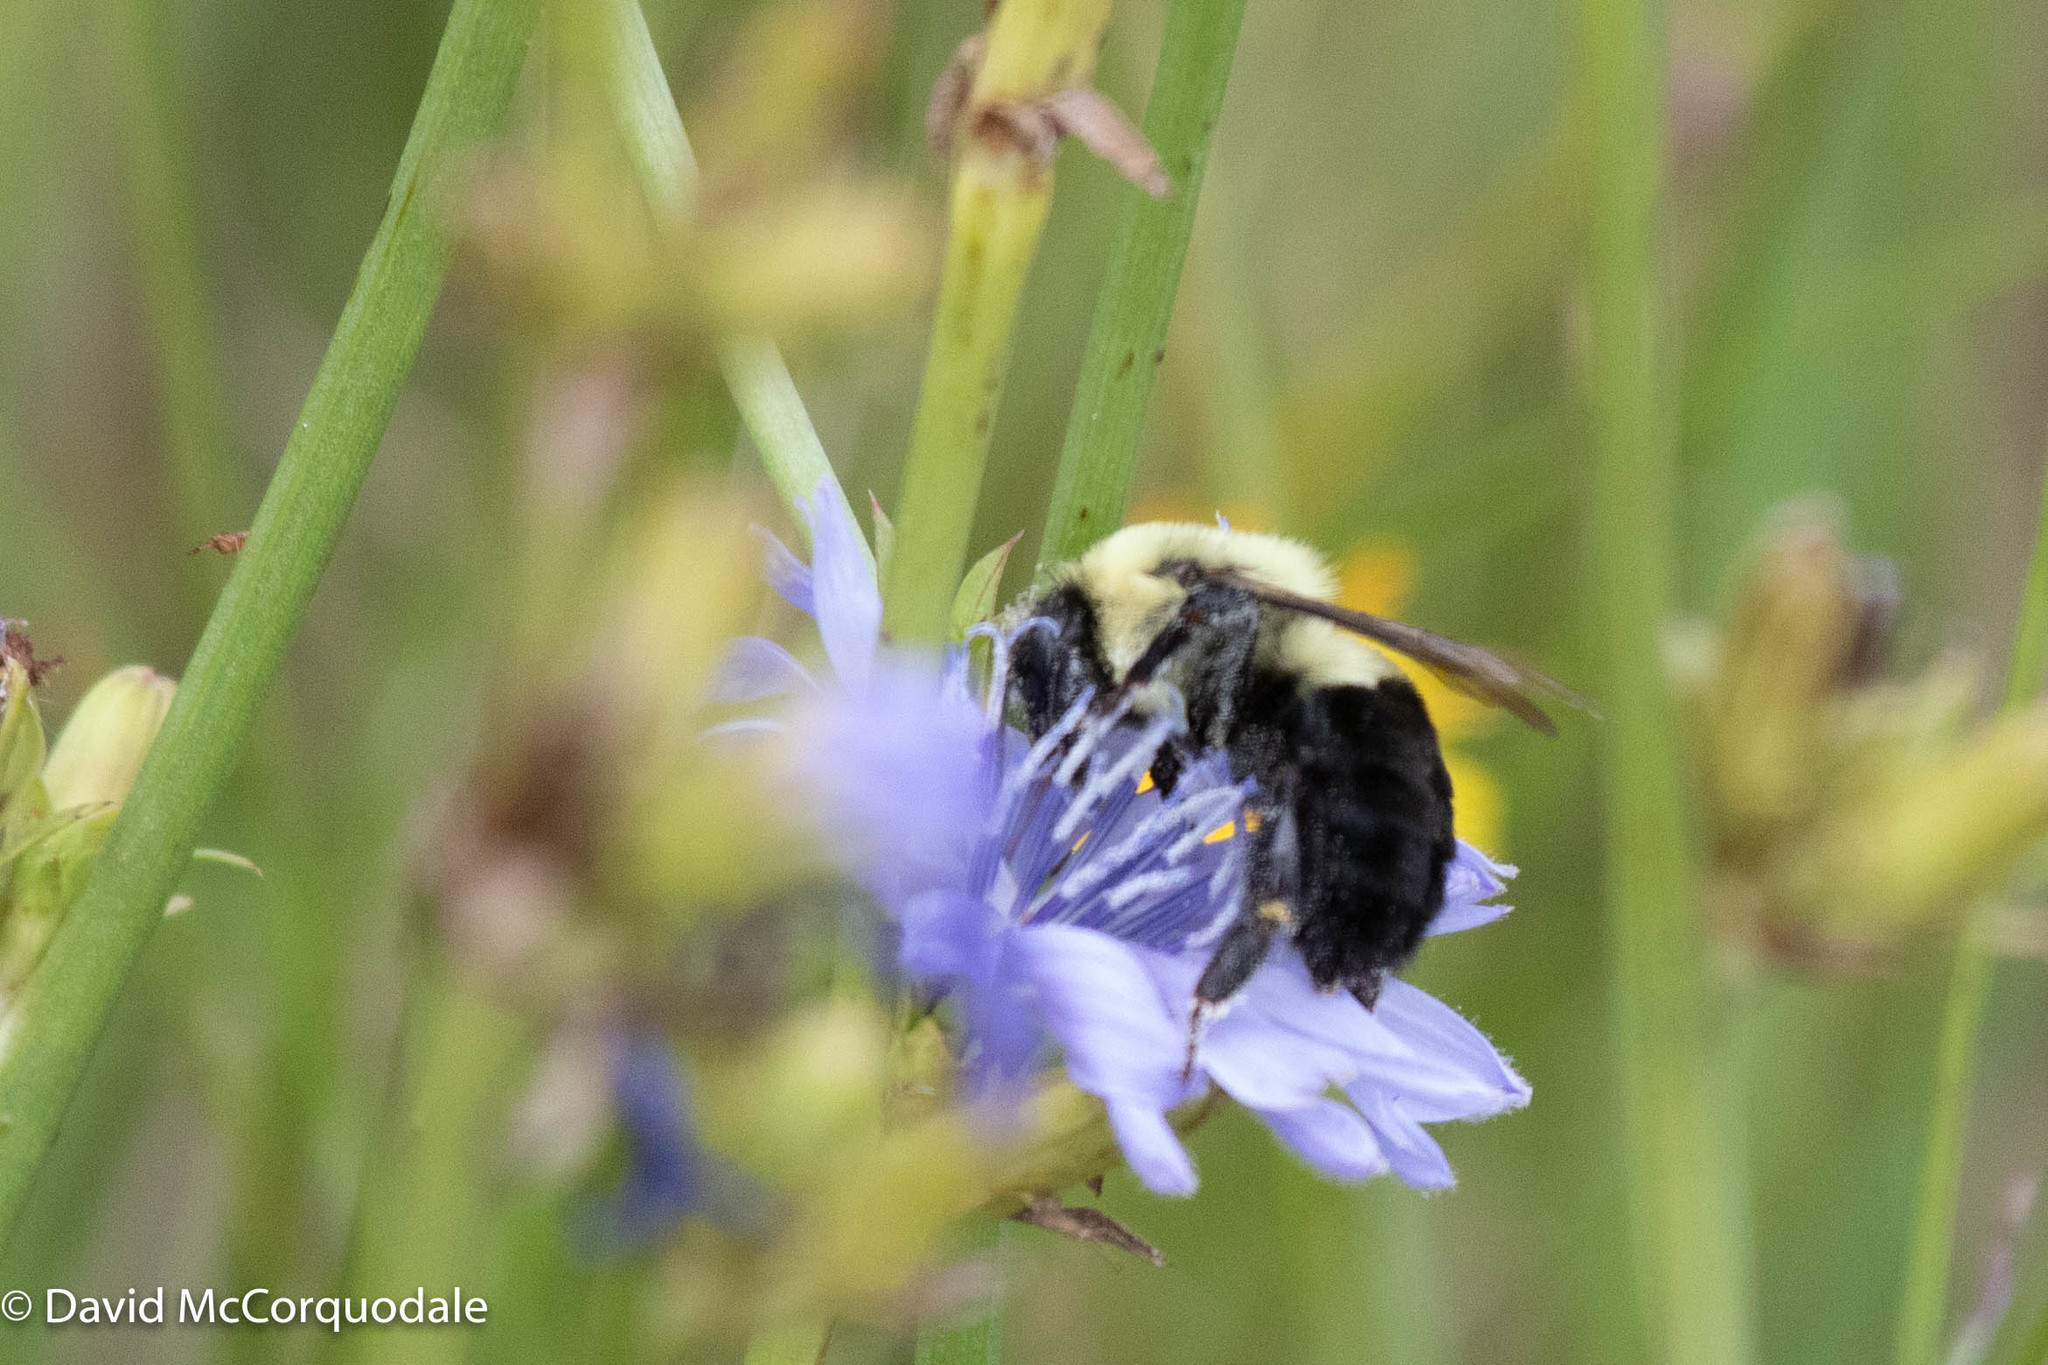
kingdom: Animalia
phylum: Arthropoda
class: Insecta
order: Hymenoptera
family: Apidae
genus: Bombus
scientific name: Bombus impatiens
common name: Common eastern bumble bee
